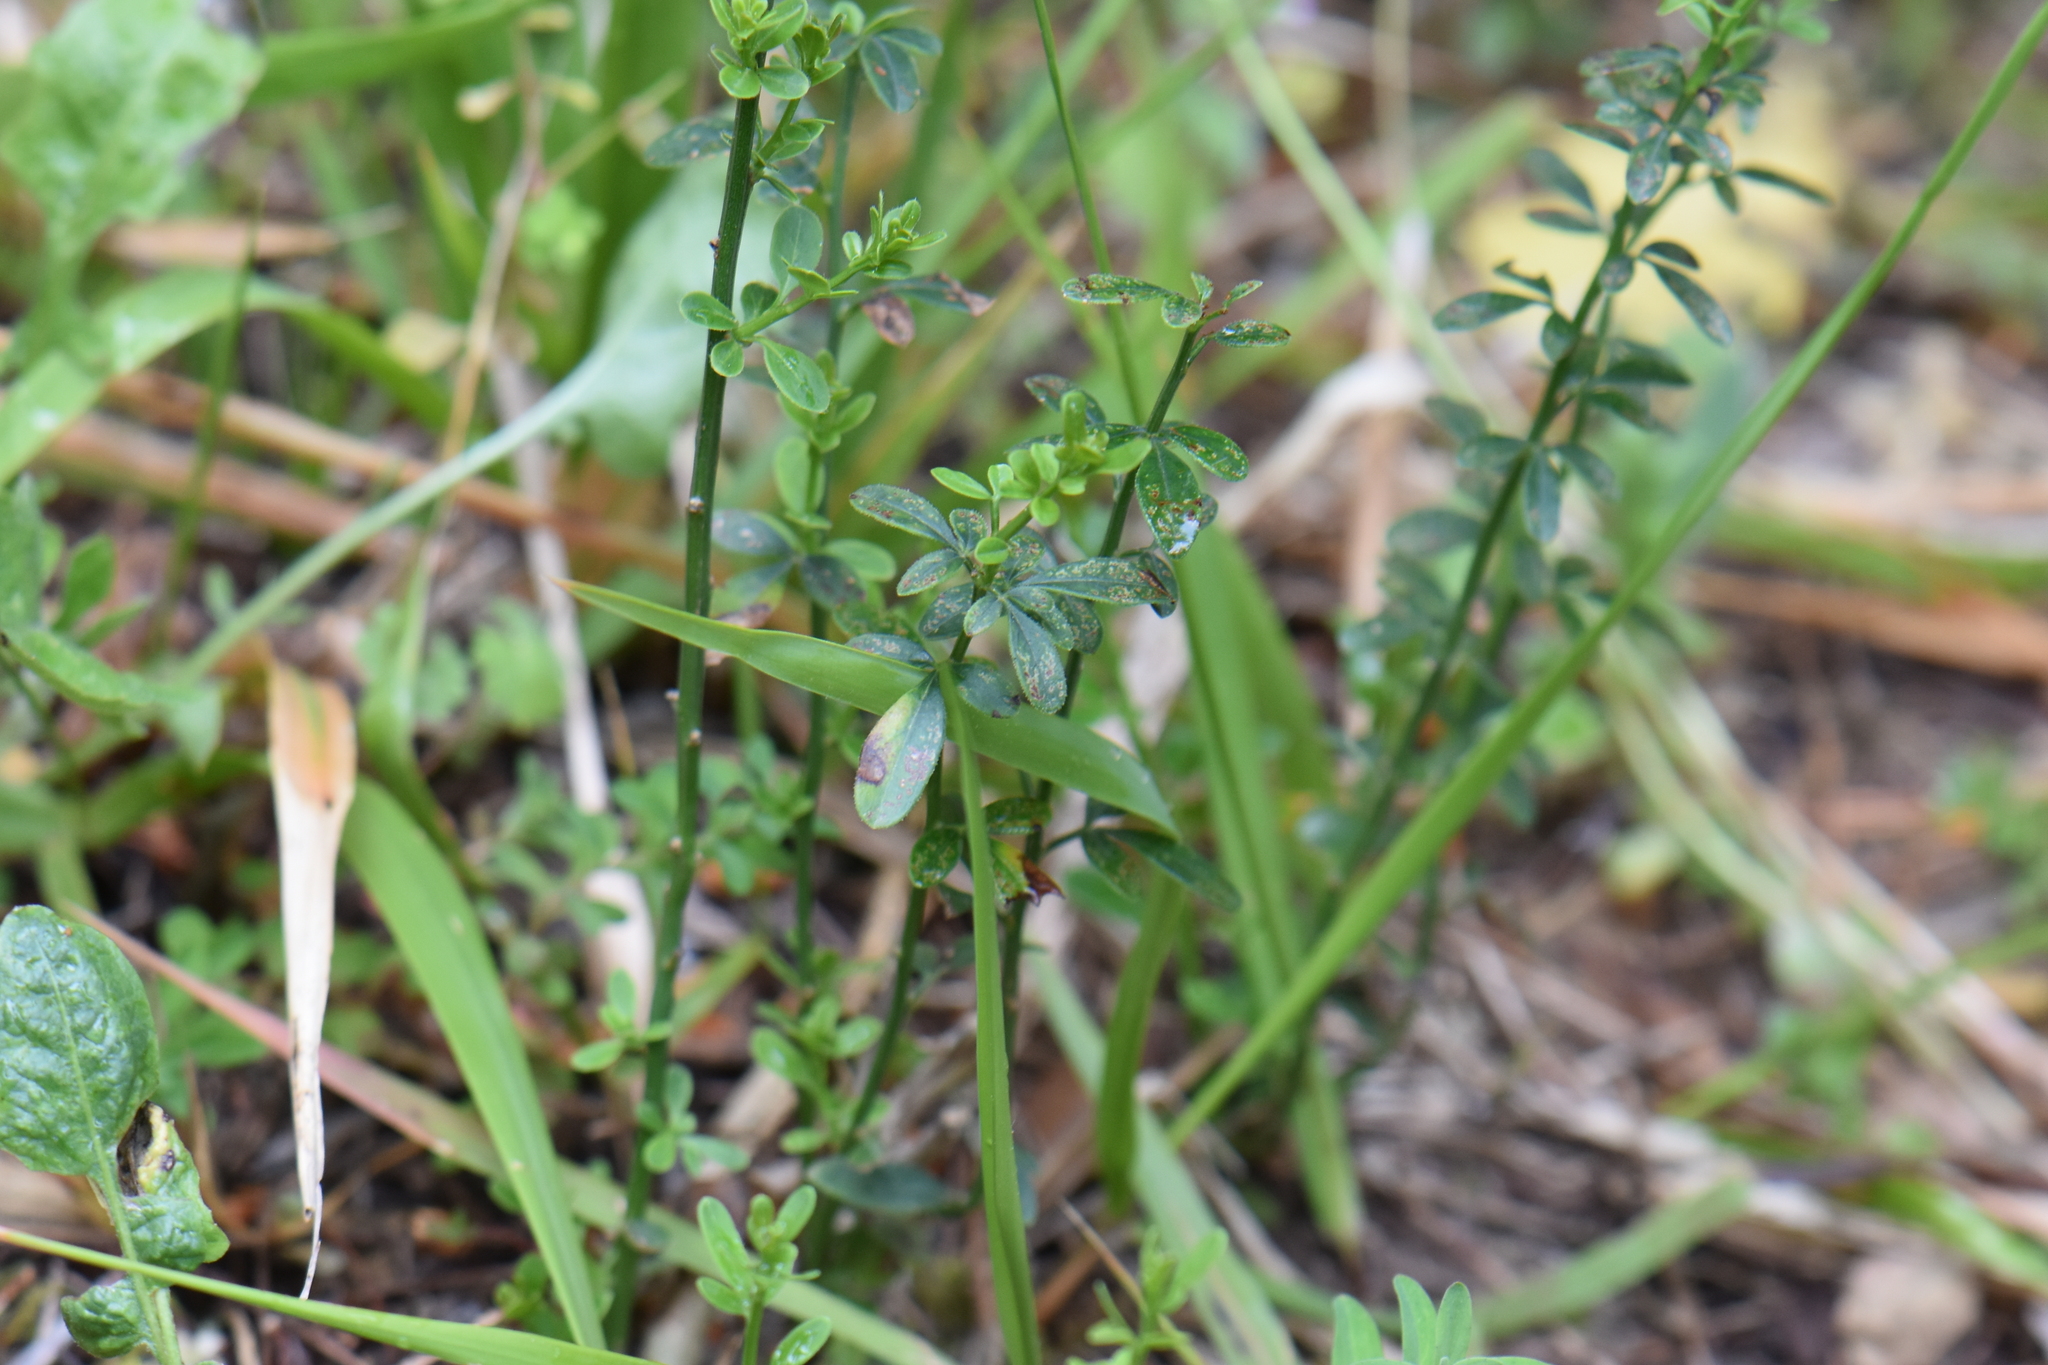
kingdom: Plantae
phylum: Tracheophyta
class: Magnoliopsida
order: Lamiales
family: Oleaceae
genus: Chrysojasminum
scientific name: Chrysojasminum fruticans
